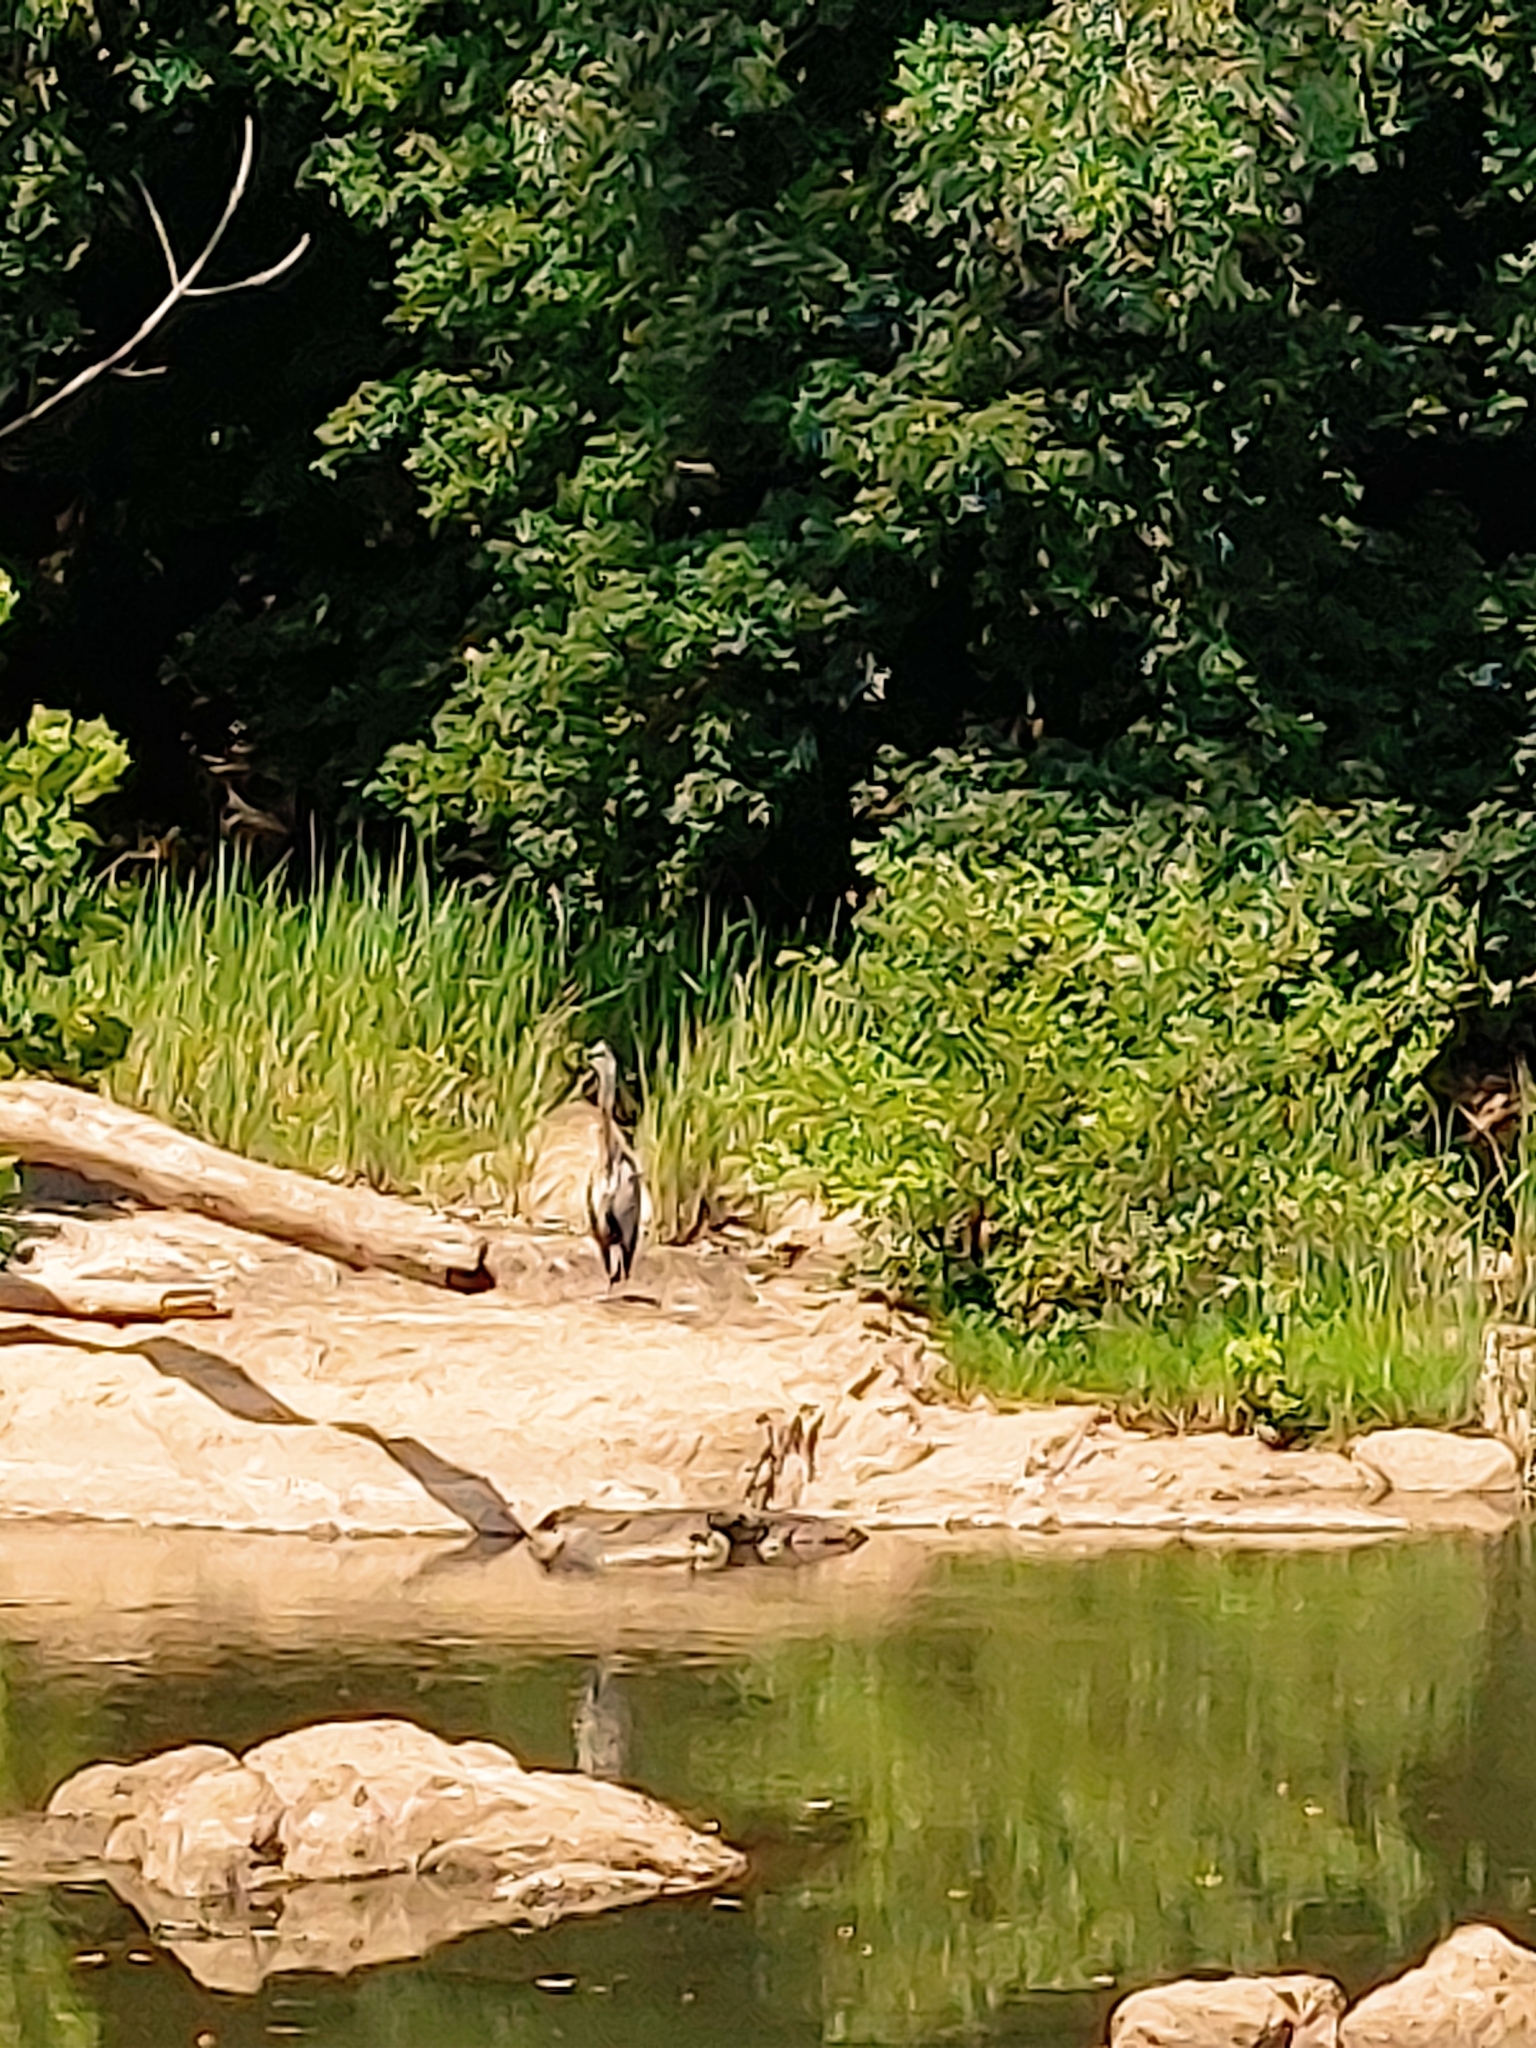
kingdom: Animalia
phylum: Chordata
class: Aves
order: Pelecaniformes
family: Ardeidae
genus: Ardea
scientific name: Ardea herodias
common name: Great blue heron
